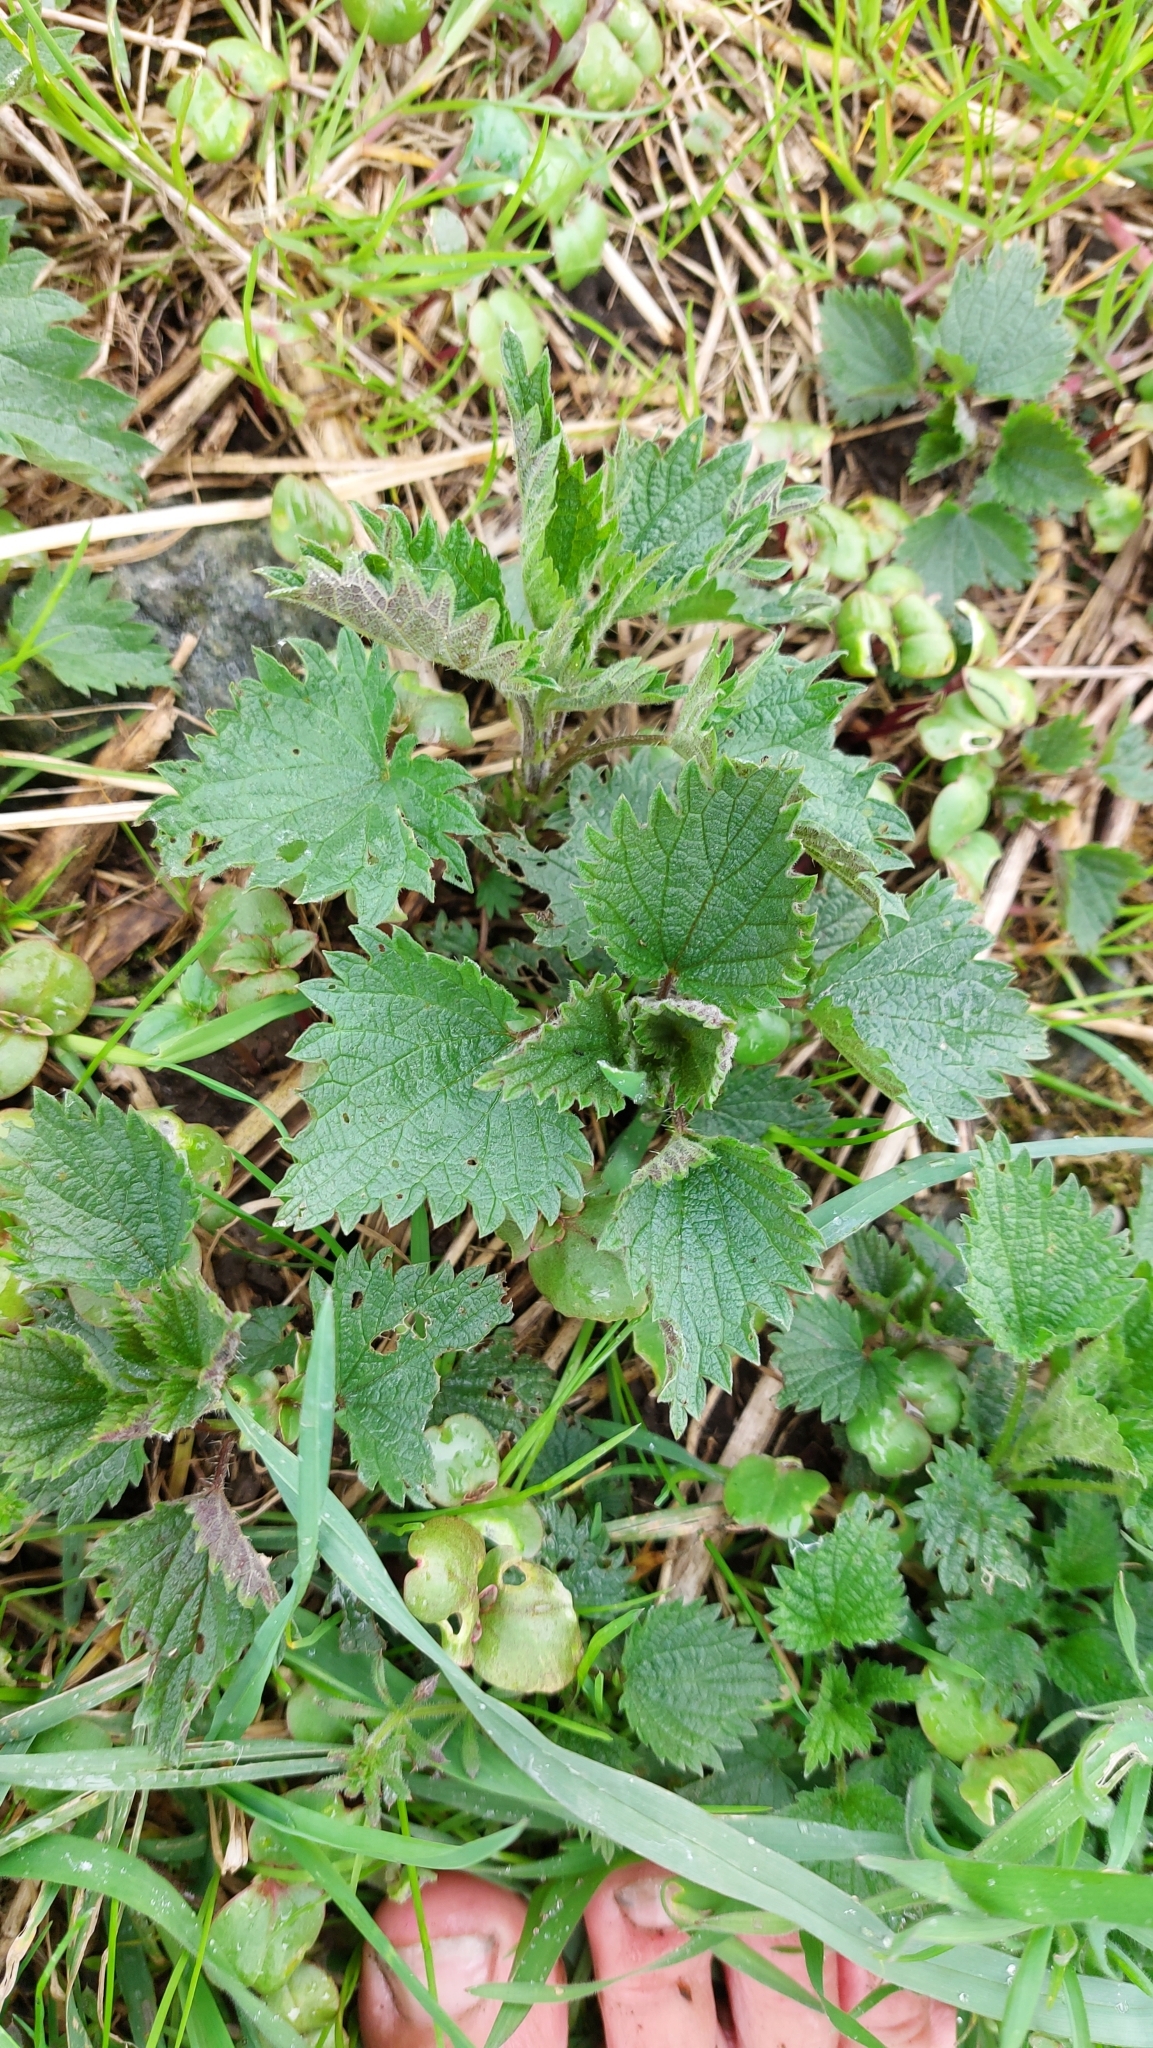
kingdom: Plantae
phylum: Tracheophyta
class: Magnoliopsida
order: Rosales
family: Urticaceae
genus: Urtica
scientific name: Urtica dioica
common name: Common nettle
